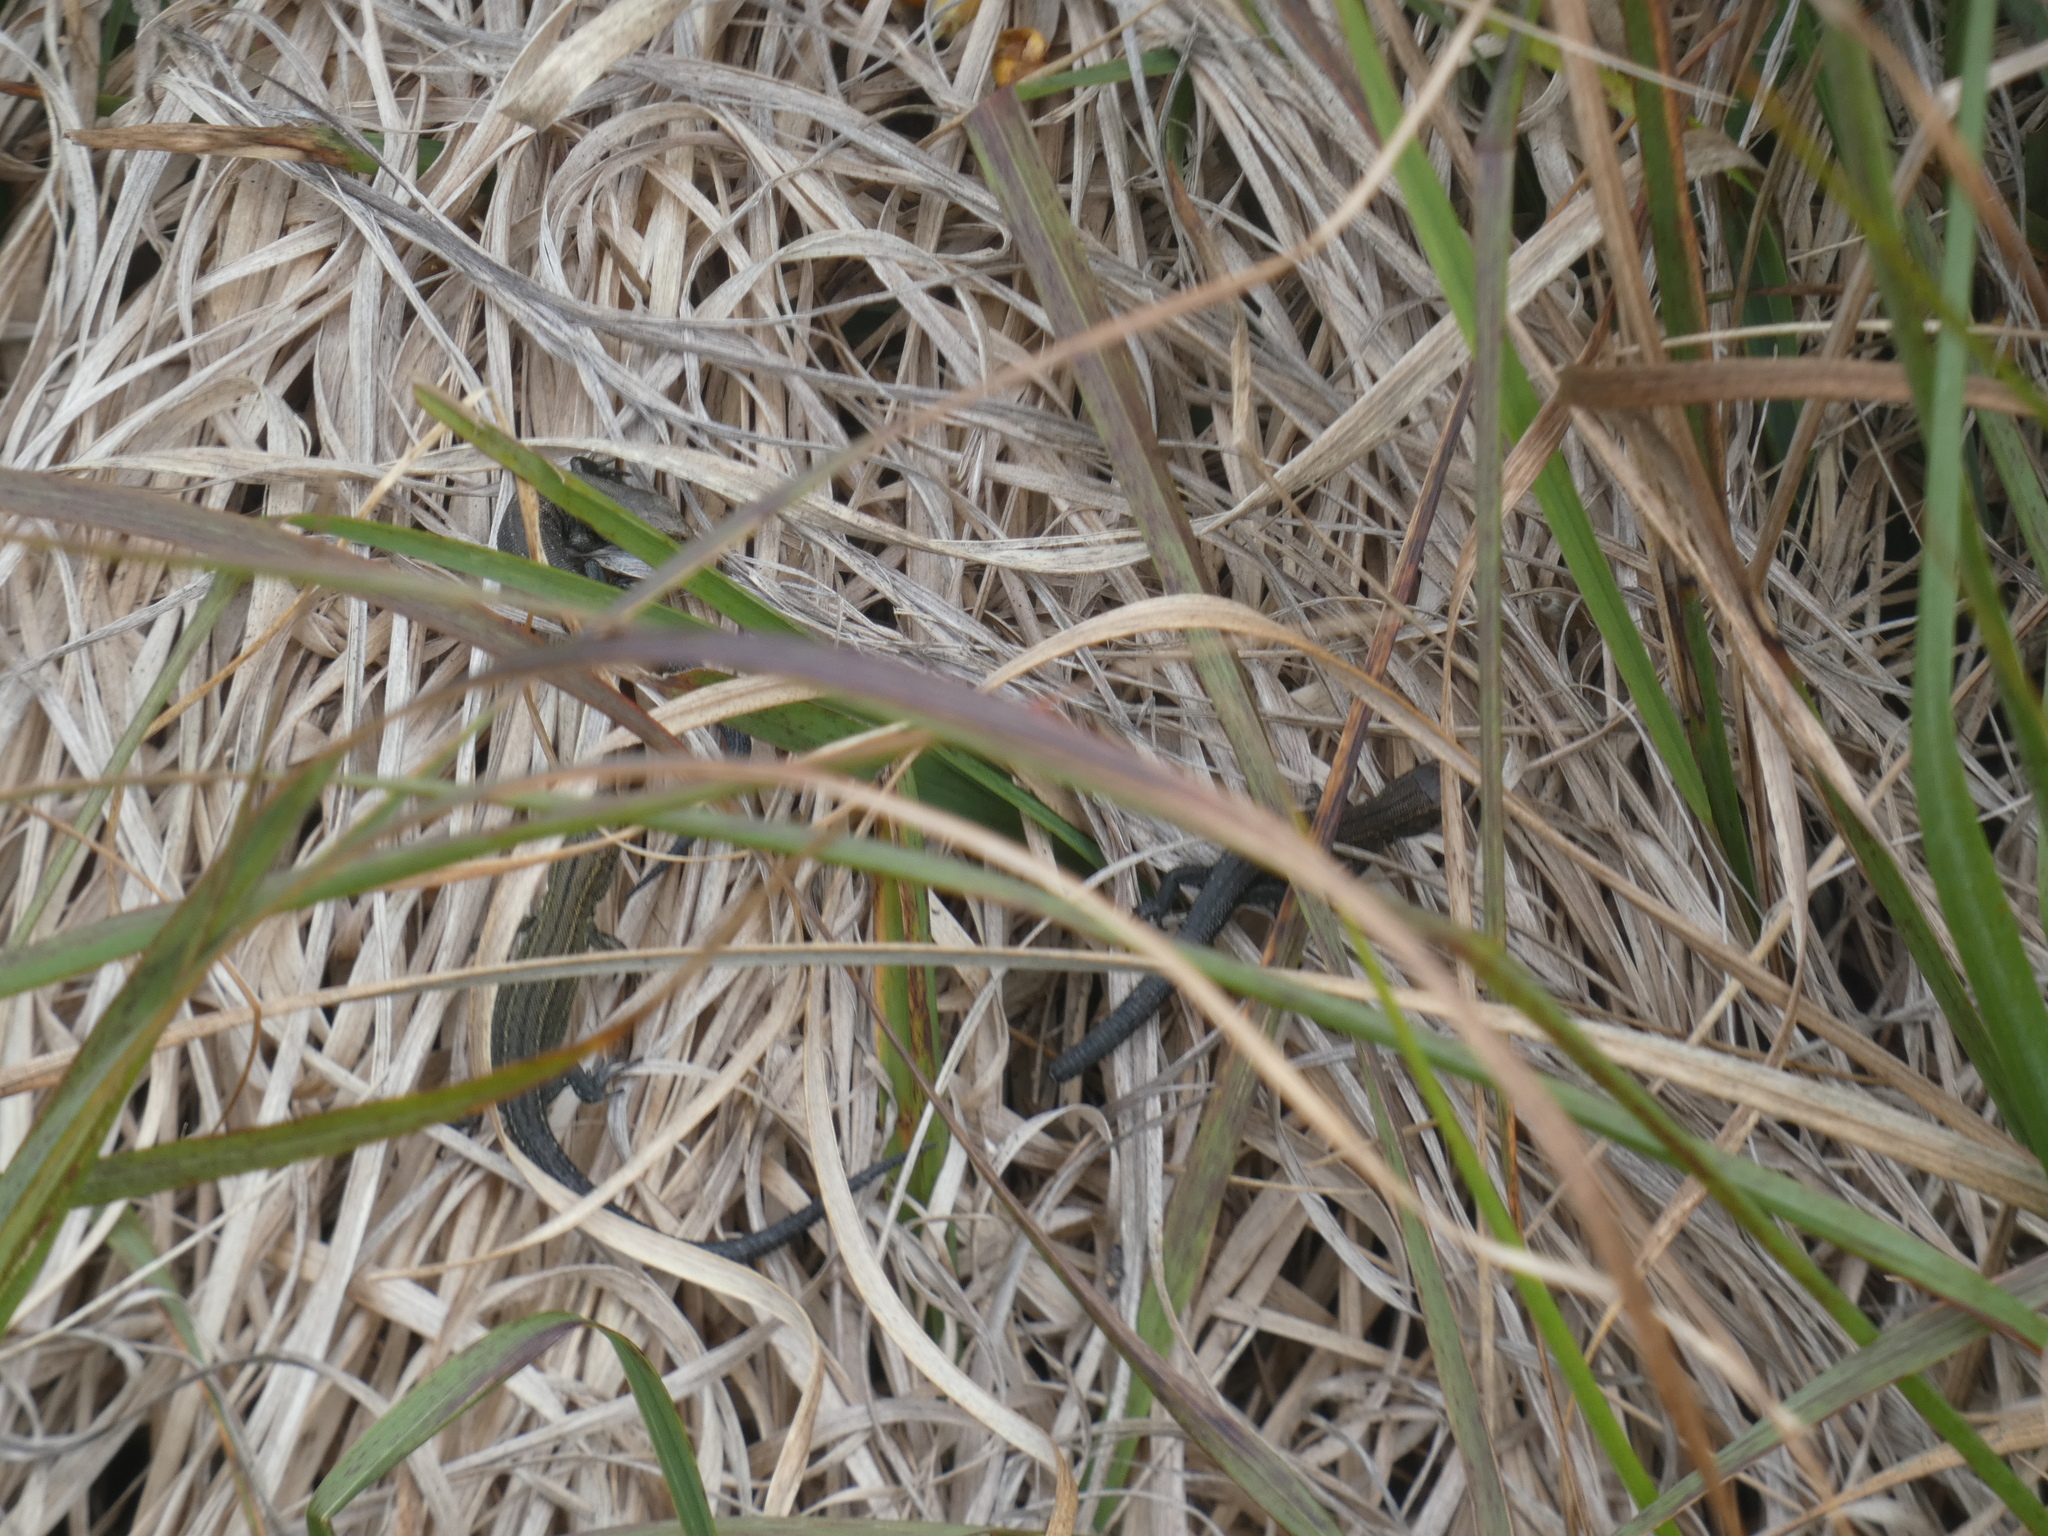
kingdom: Animalia
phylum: Chordata
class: Squamata
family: Lacertidae
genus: Zootoca
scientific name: Zootoca vivipara
